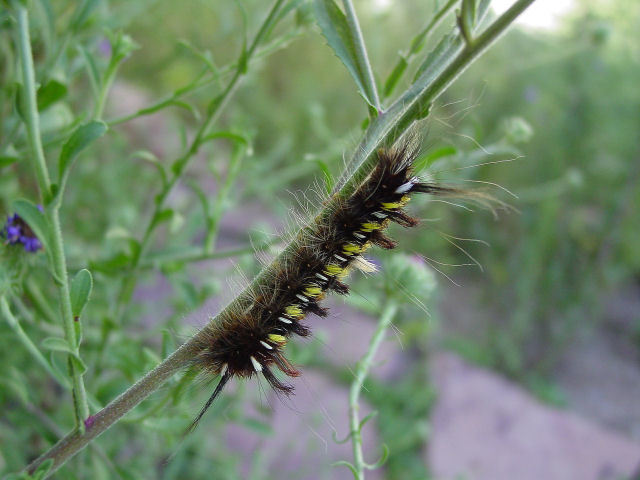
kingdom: Animalia
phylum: Arthropoda
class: Insecta
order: Lepidoptera
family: Apatelodidae
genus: Hygrochroa
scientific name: Hygrochroa Apatelodes pudefacta
